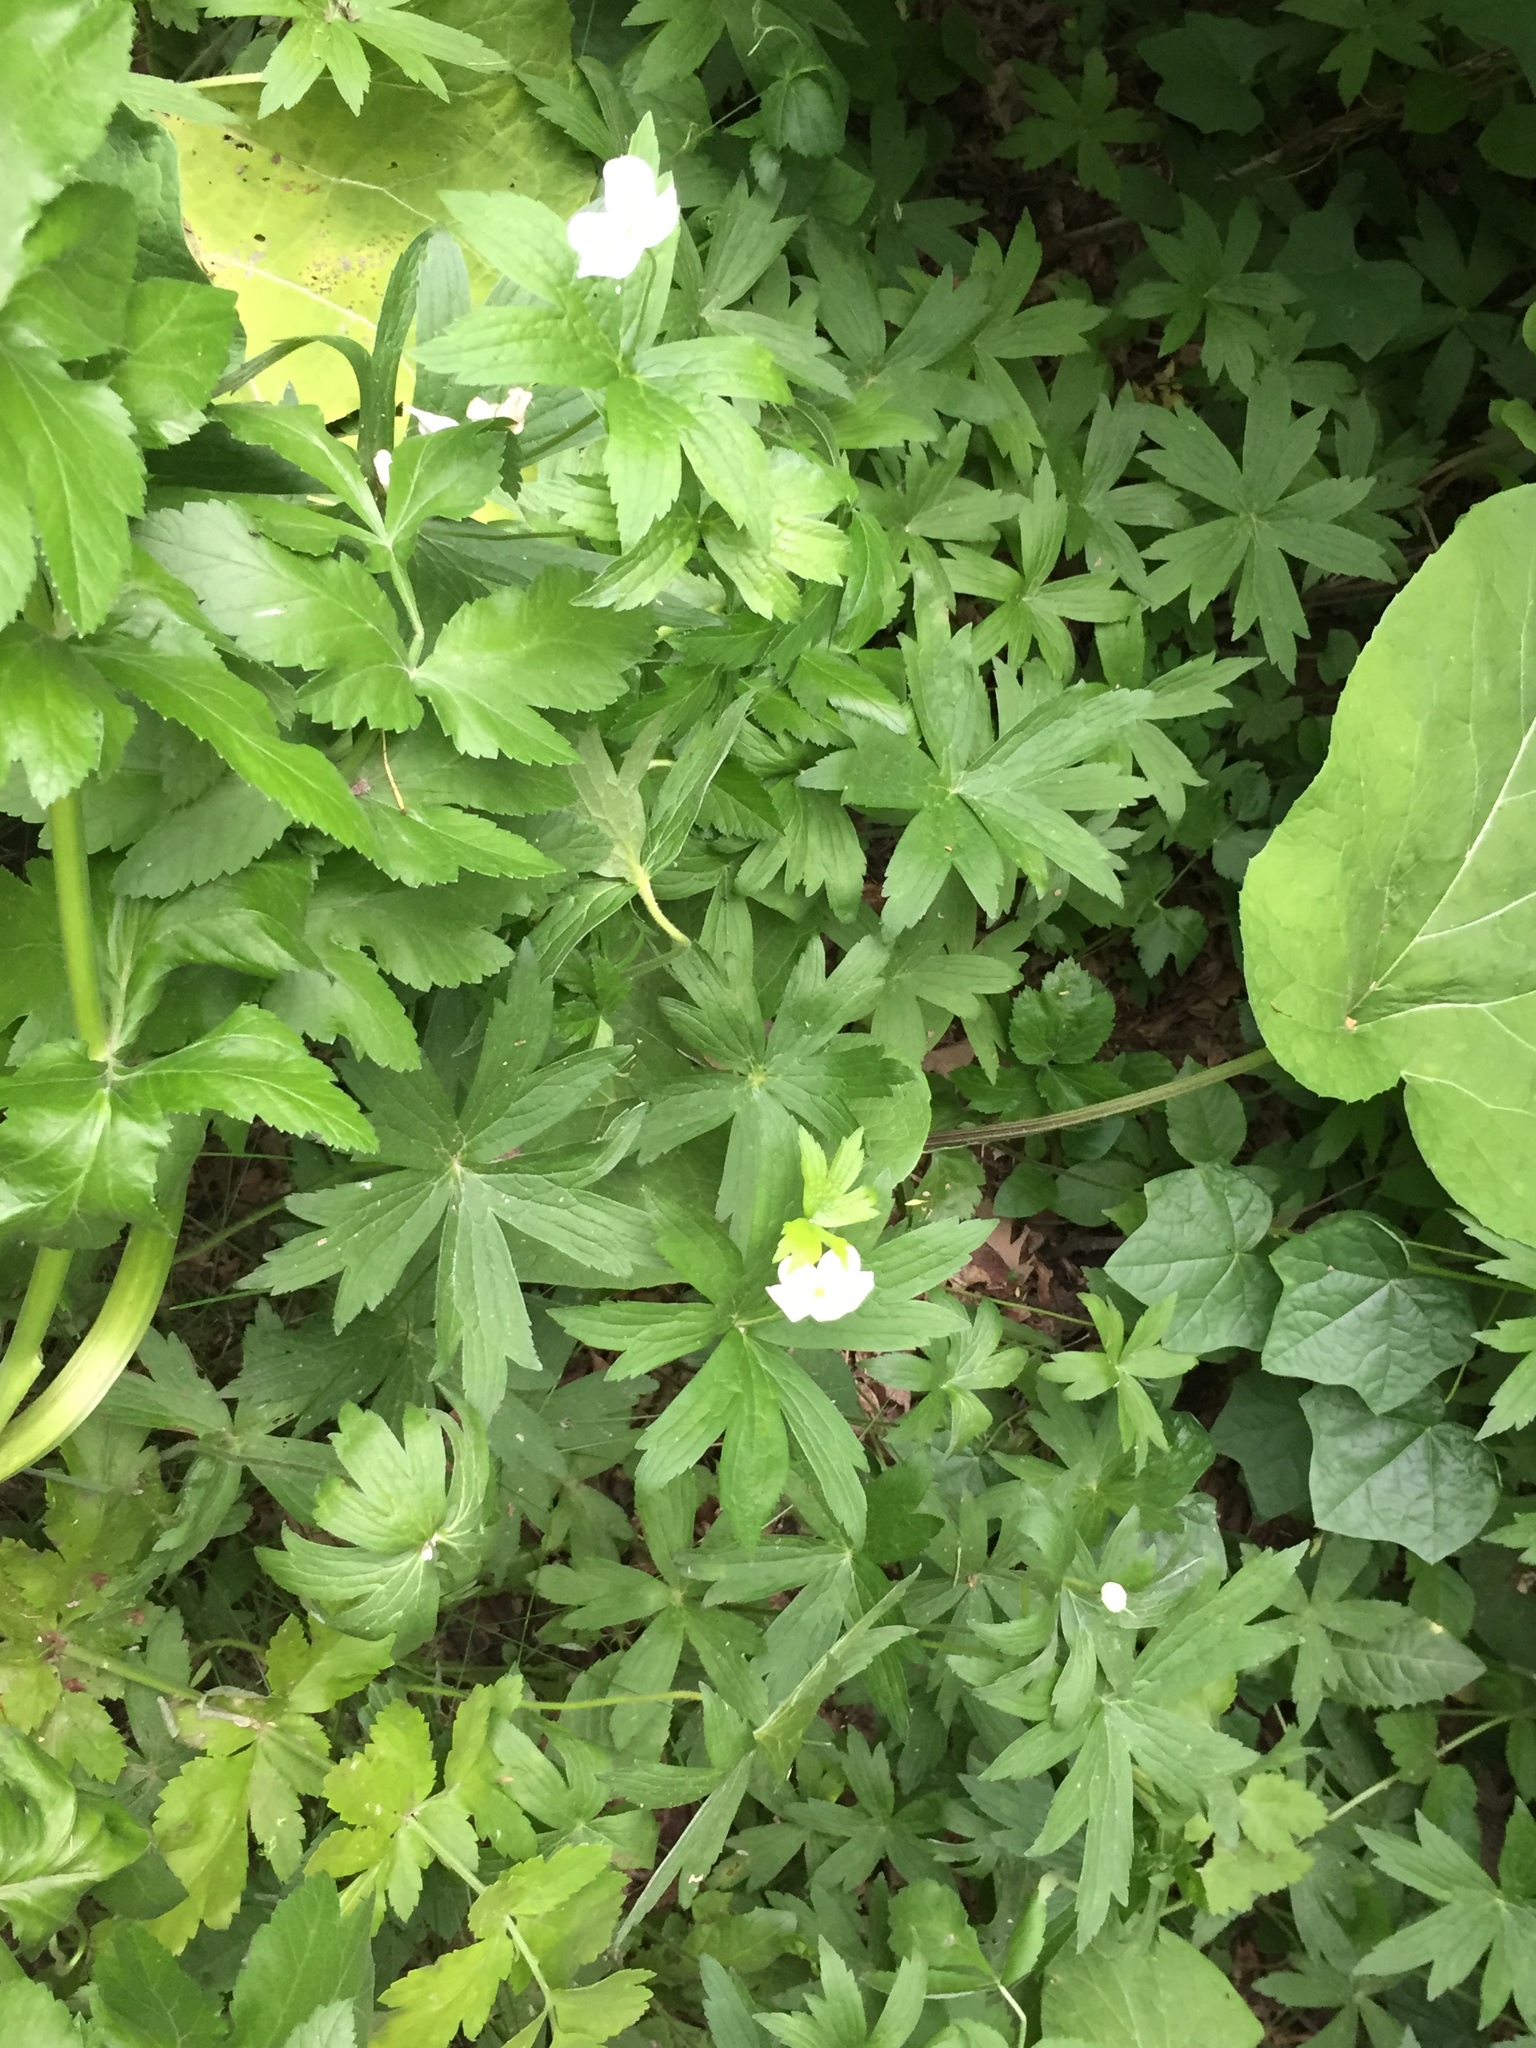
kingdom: Plantae
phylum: Tracheophyta
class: Magnoliopsida
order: Ranunculales
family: Ranunculaceae
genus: Anemonastrum
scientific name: Anemonastrum canadense
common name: Canada anemone
